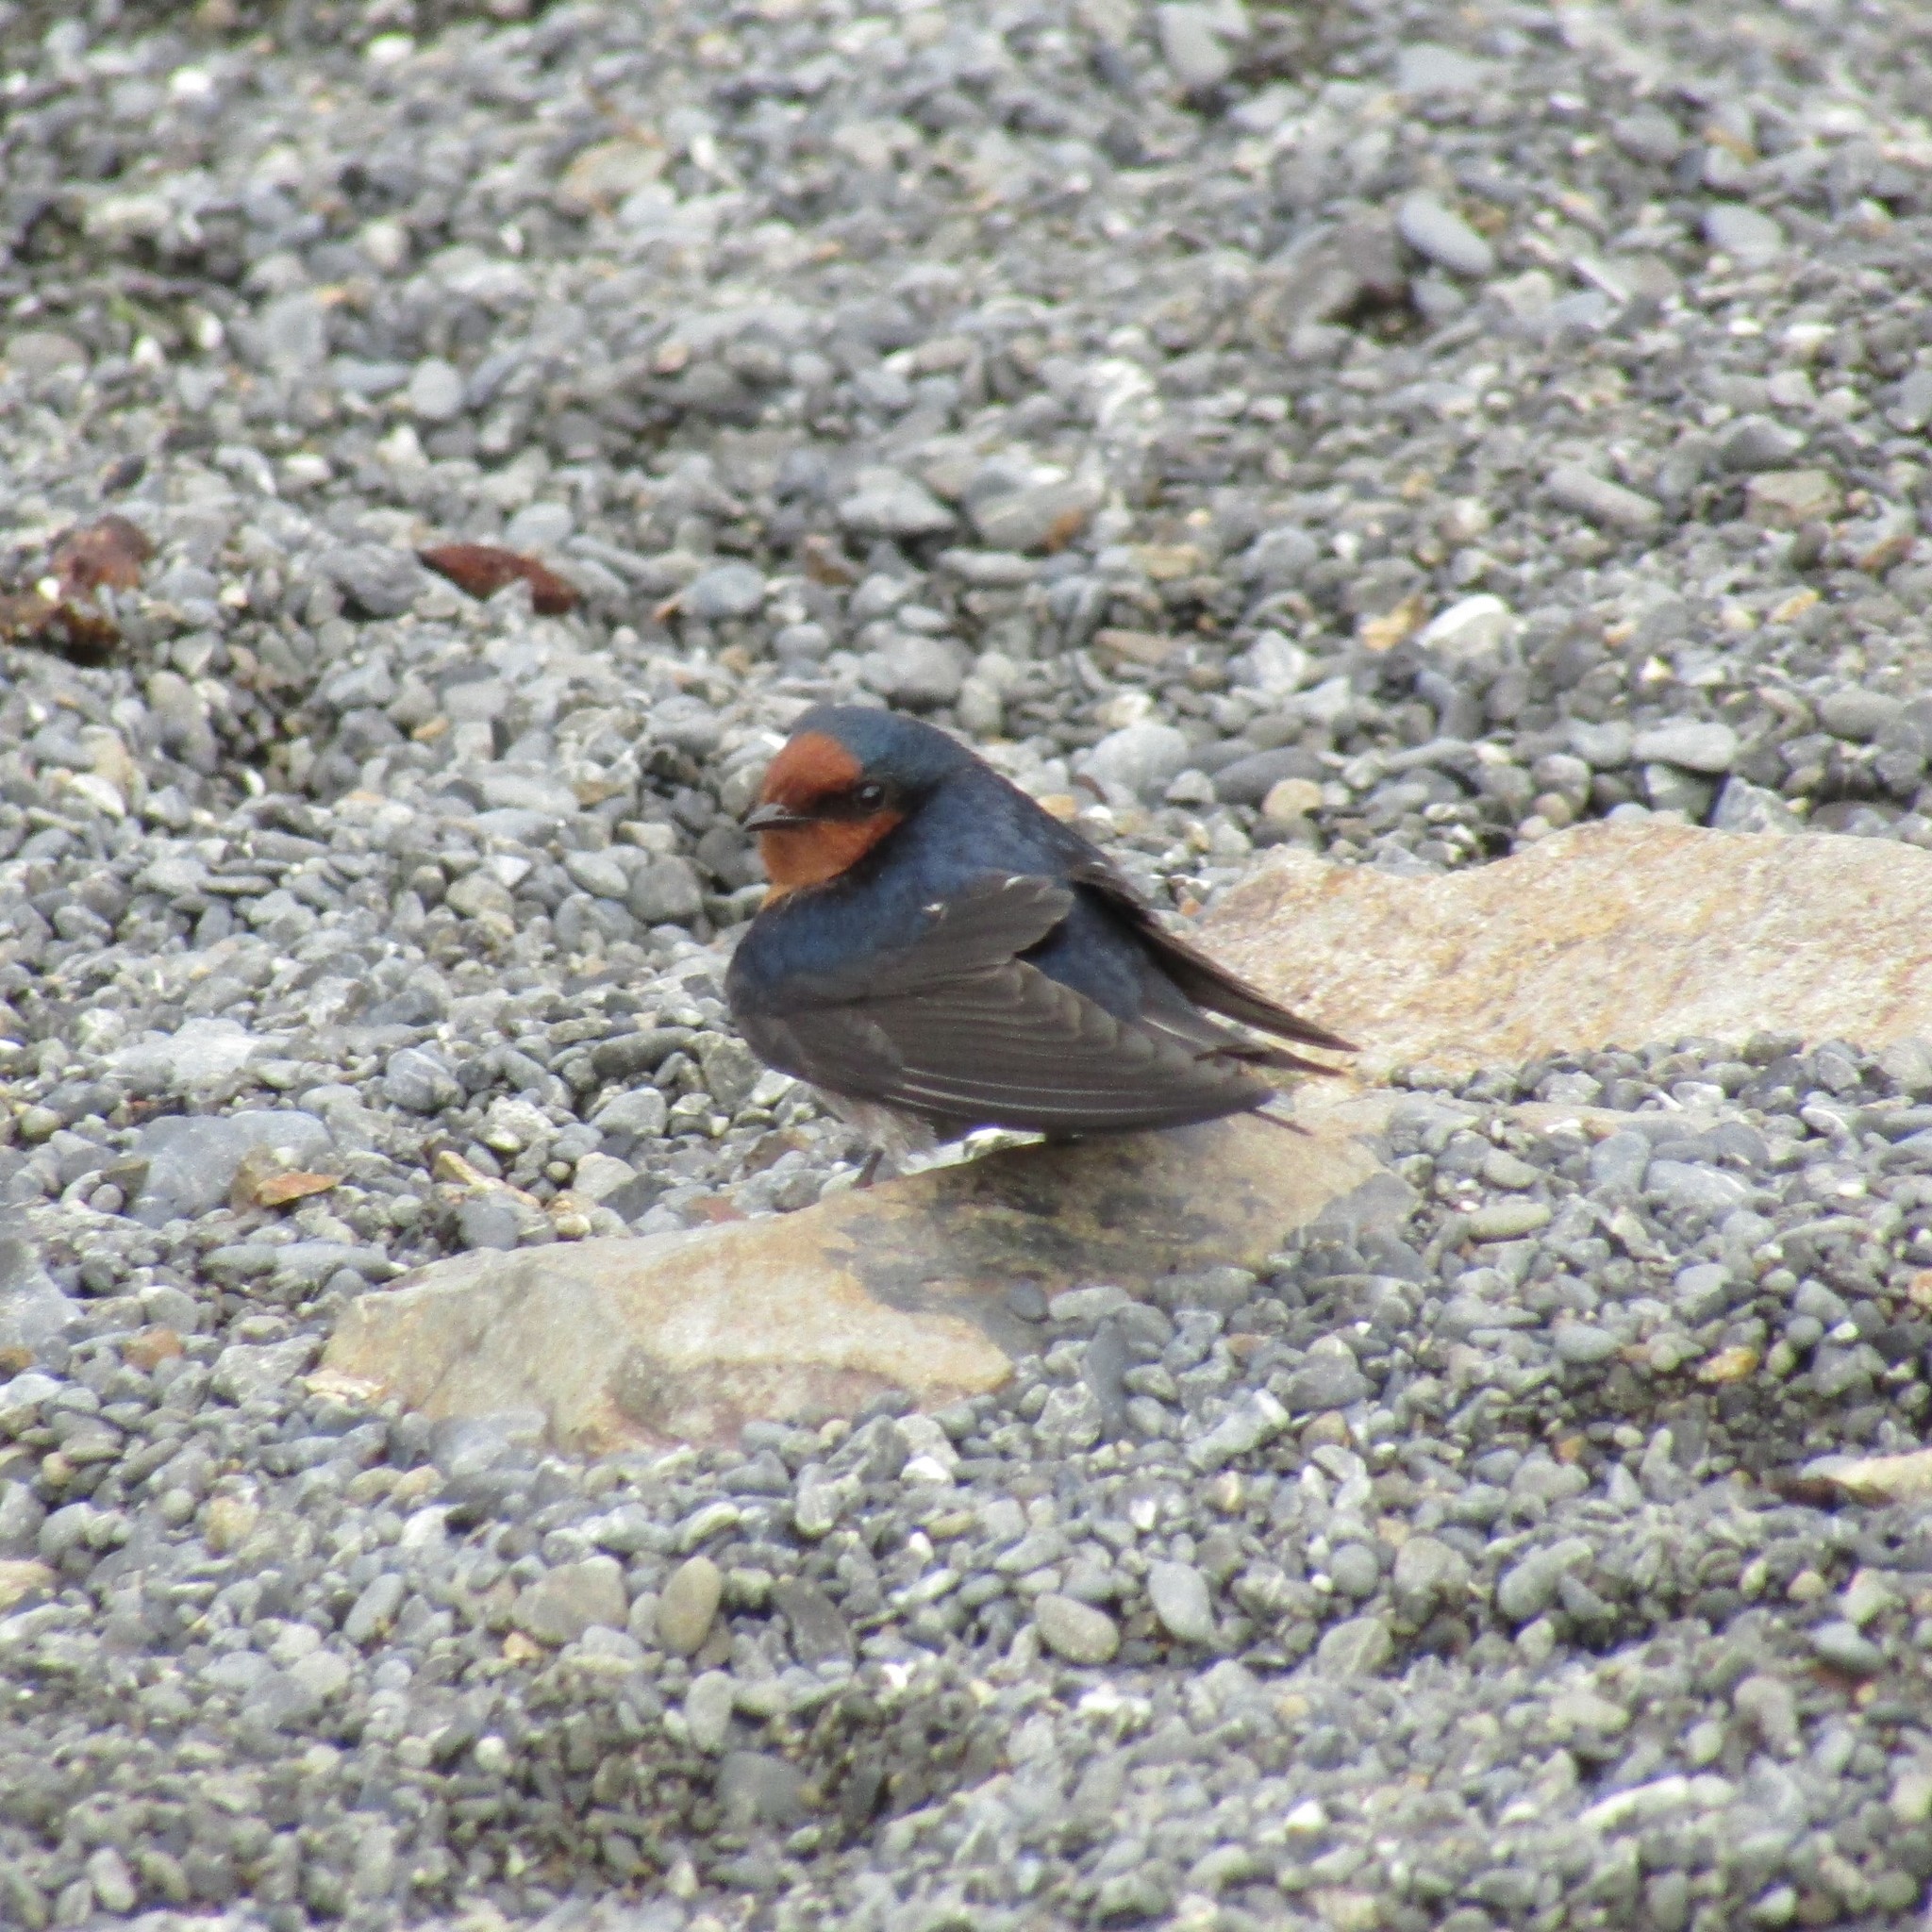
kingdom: Animalia
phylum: Chordata
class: Aves
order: Passeriformes
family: Hirundinidae
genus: Hirundo
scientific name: Hirundo neoxena
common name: Welcome swallow
